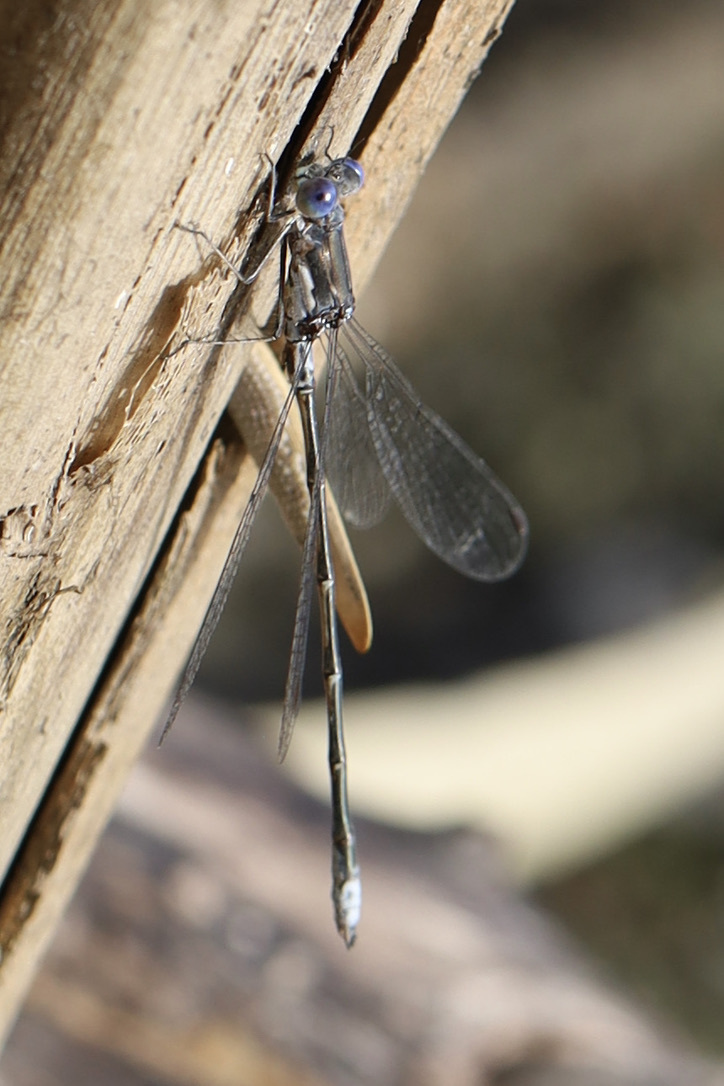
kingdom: Animalia
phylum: Arthropoda
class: Insecta
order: Odonata
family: Lestidae
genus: Lestes
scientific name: Lestes congener
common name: Spotted spreadwing
